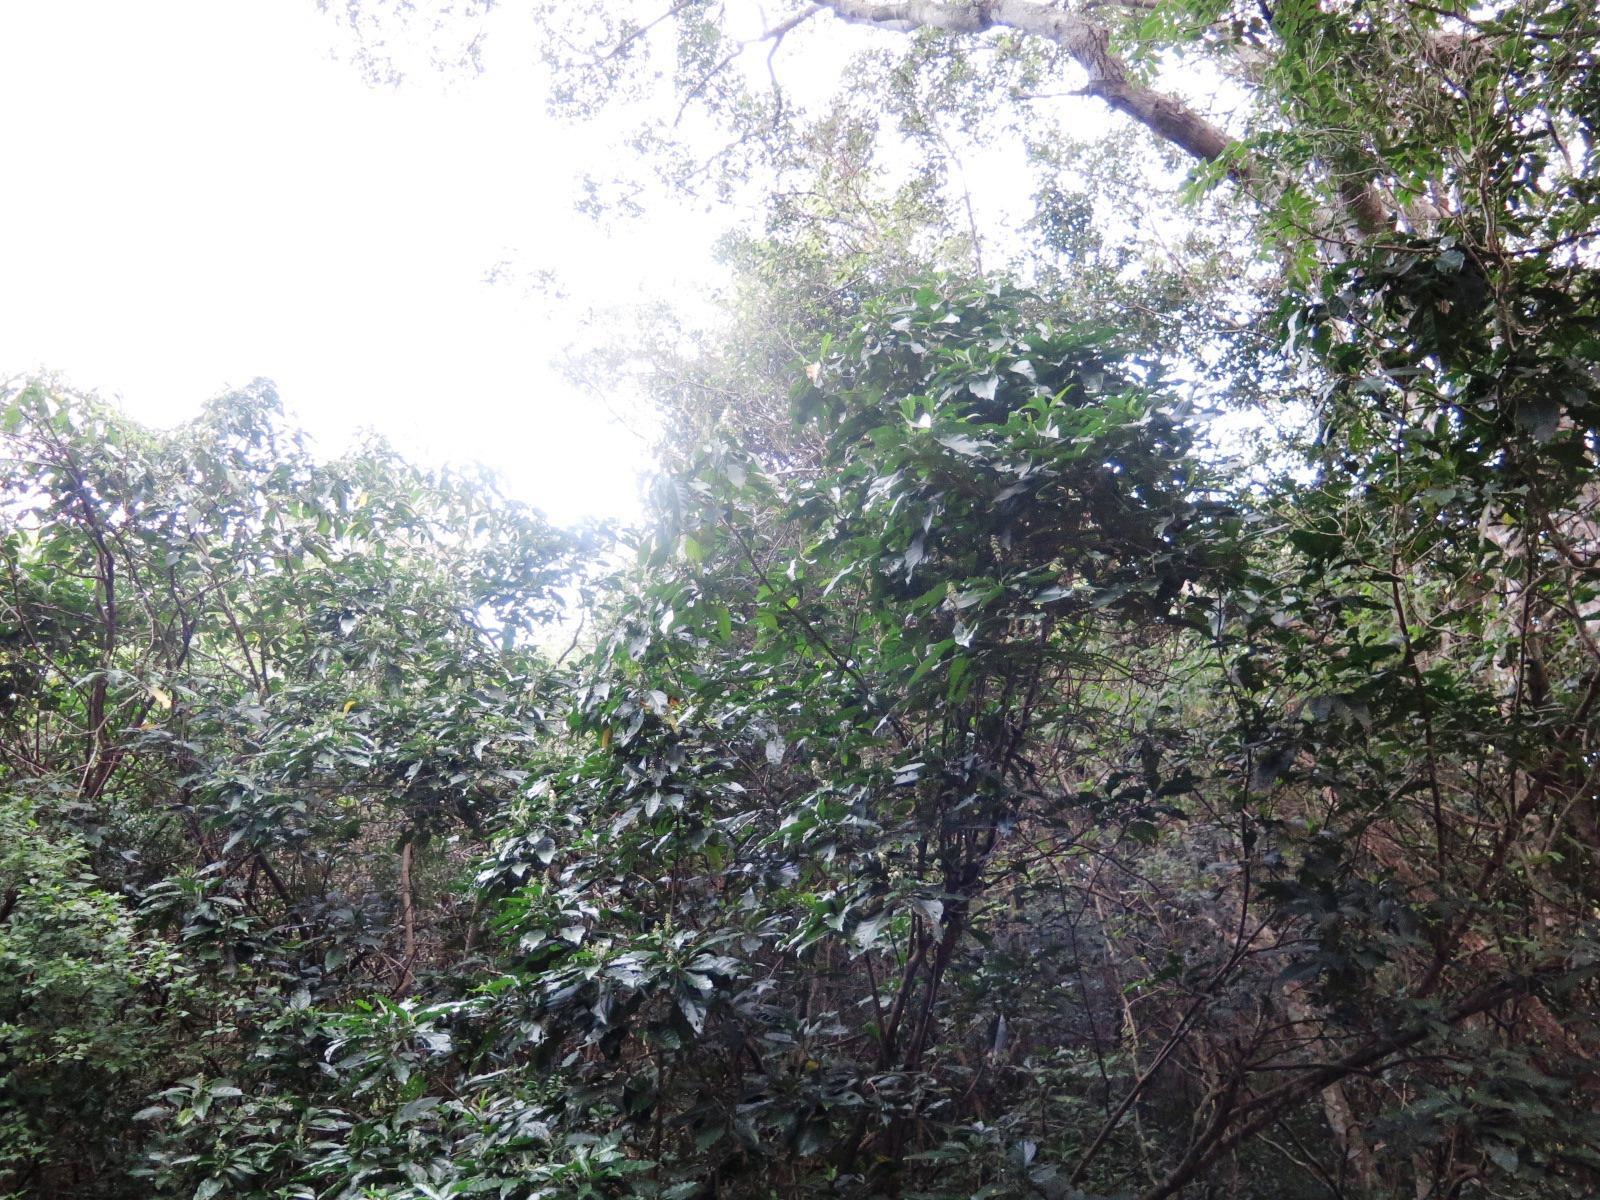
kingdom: Plantae
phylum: Tracheophyta
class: Magnoliopsida
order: Lamiales
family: Acanthaceae
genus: Justicia
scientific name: Justicia adhatodoides
